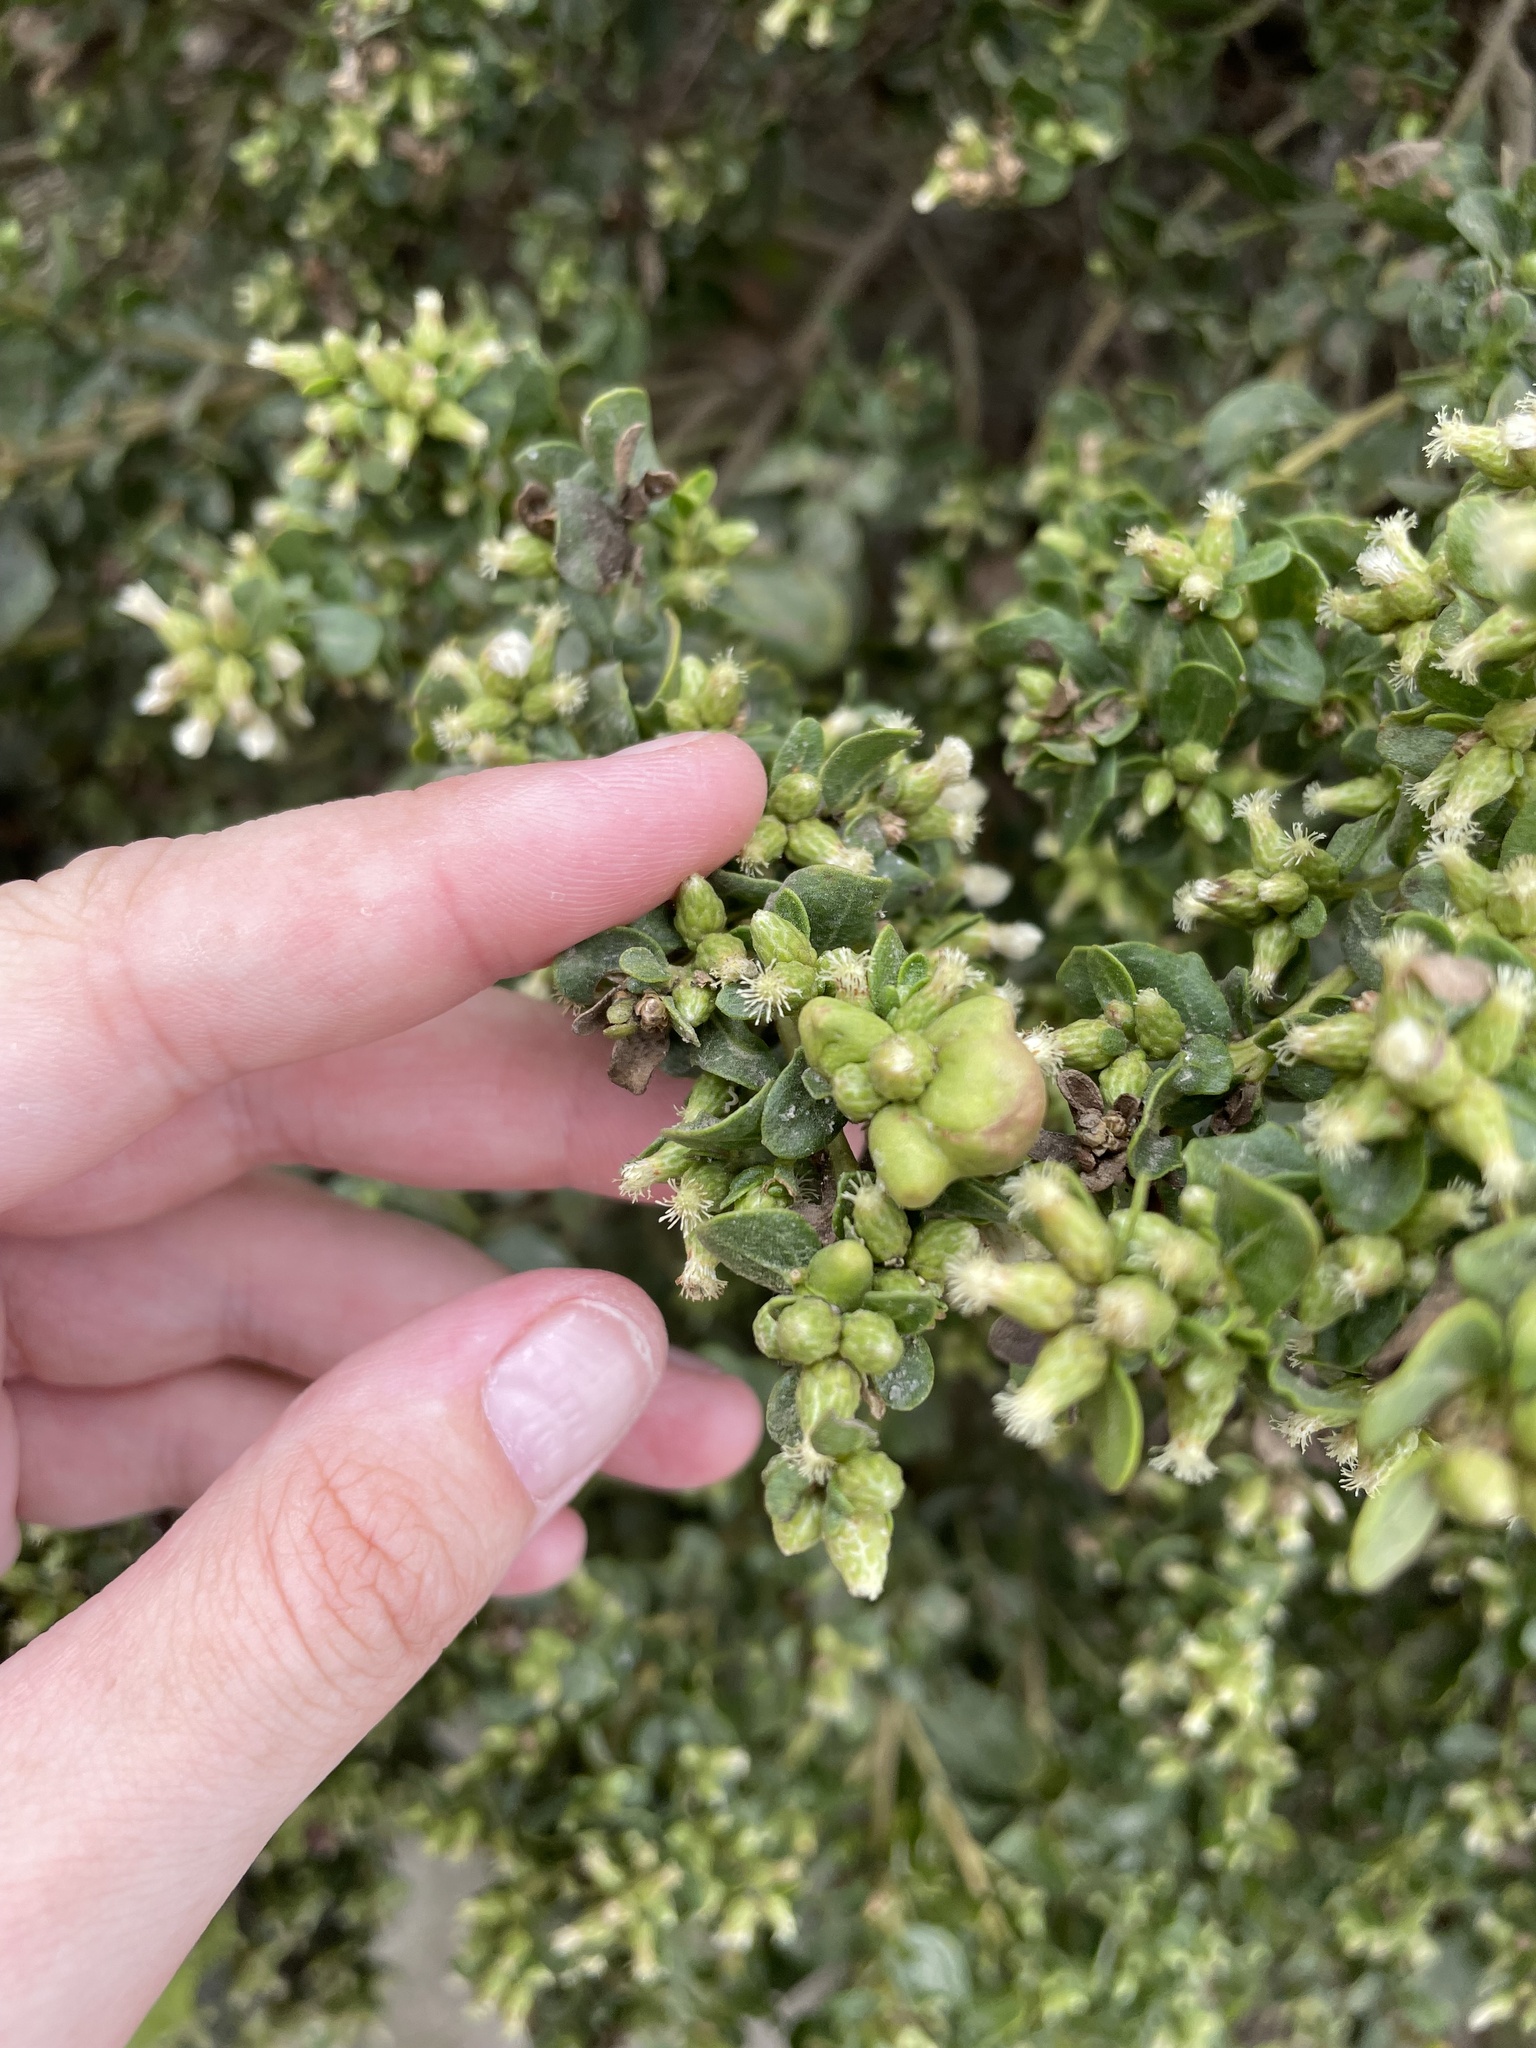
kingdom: Animalia
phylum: Arthropoda
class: Insecta
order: Diptera
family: Cecidomyiidae
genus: Rhopalomyia
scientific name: Rhopalomyia californica
